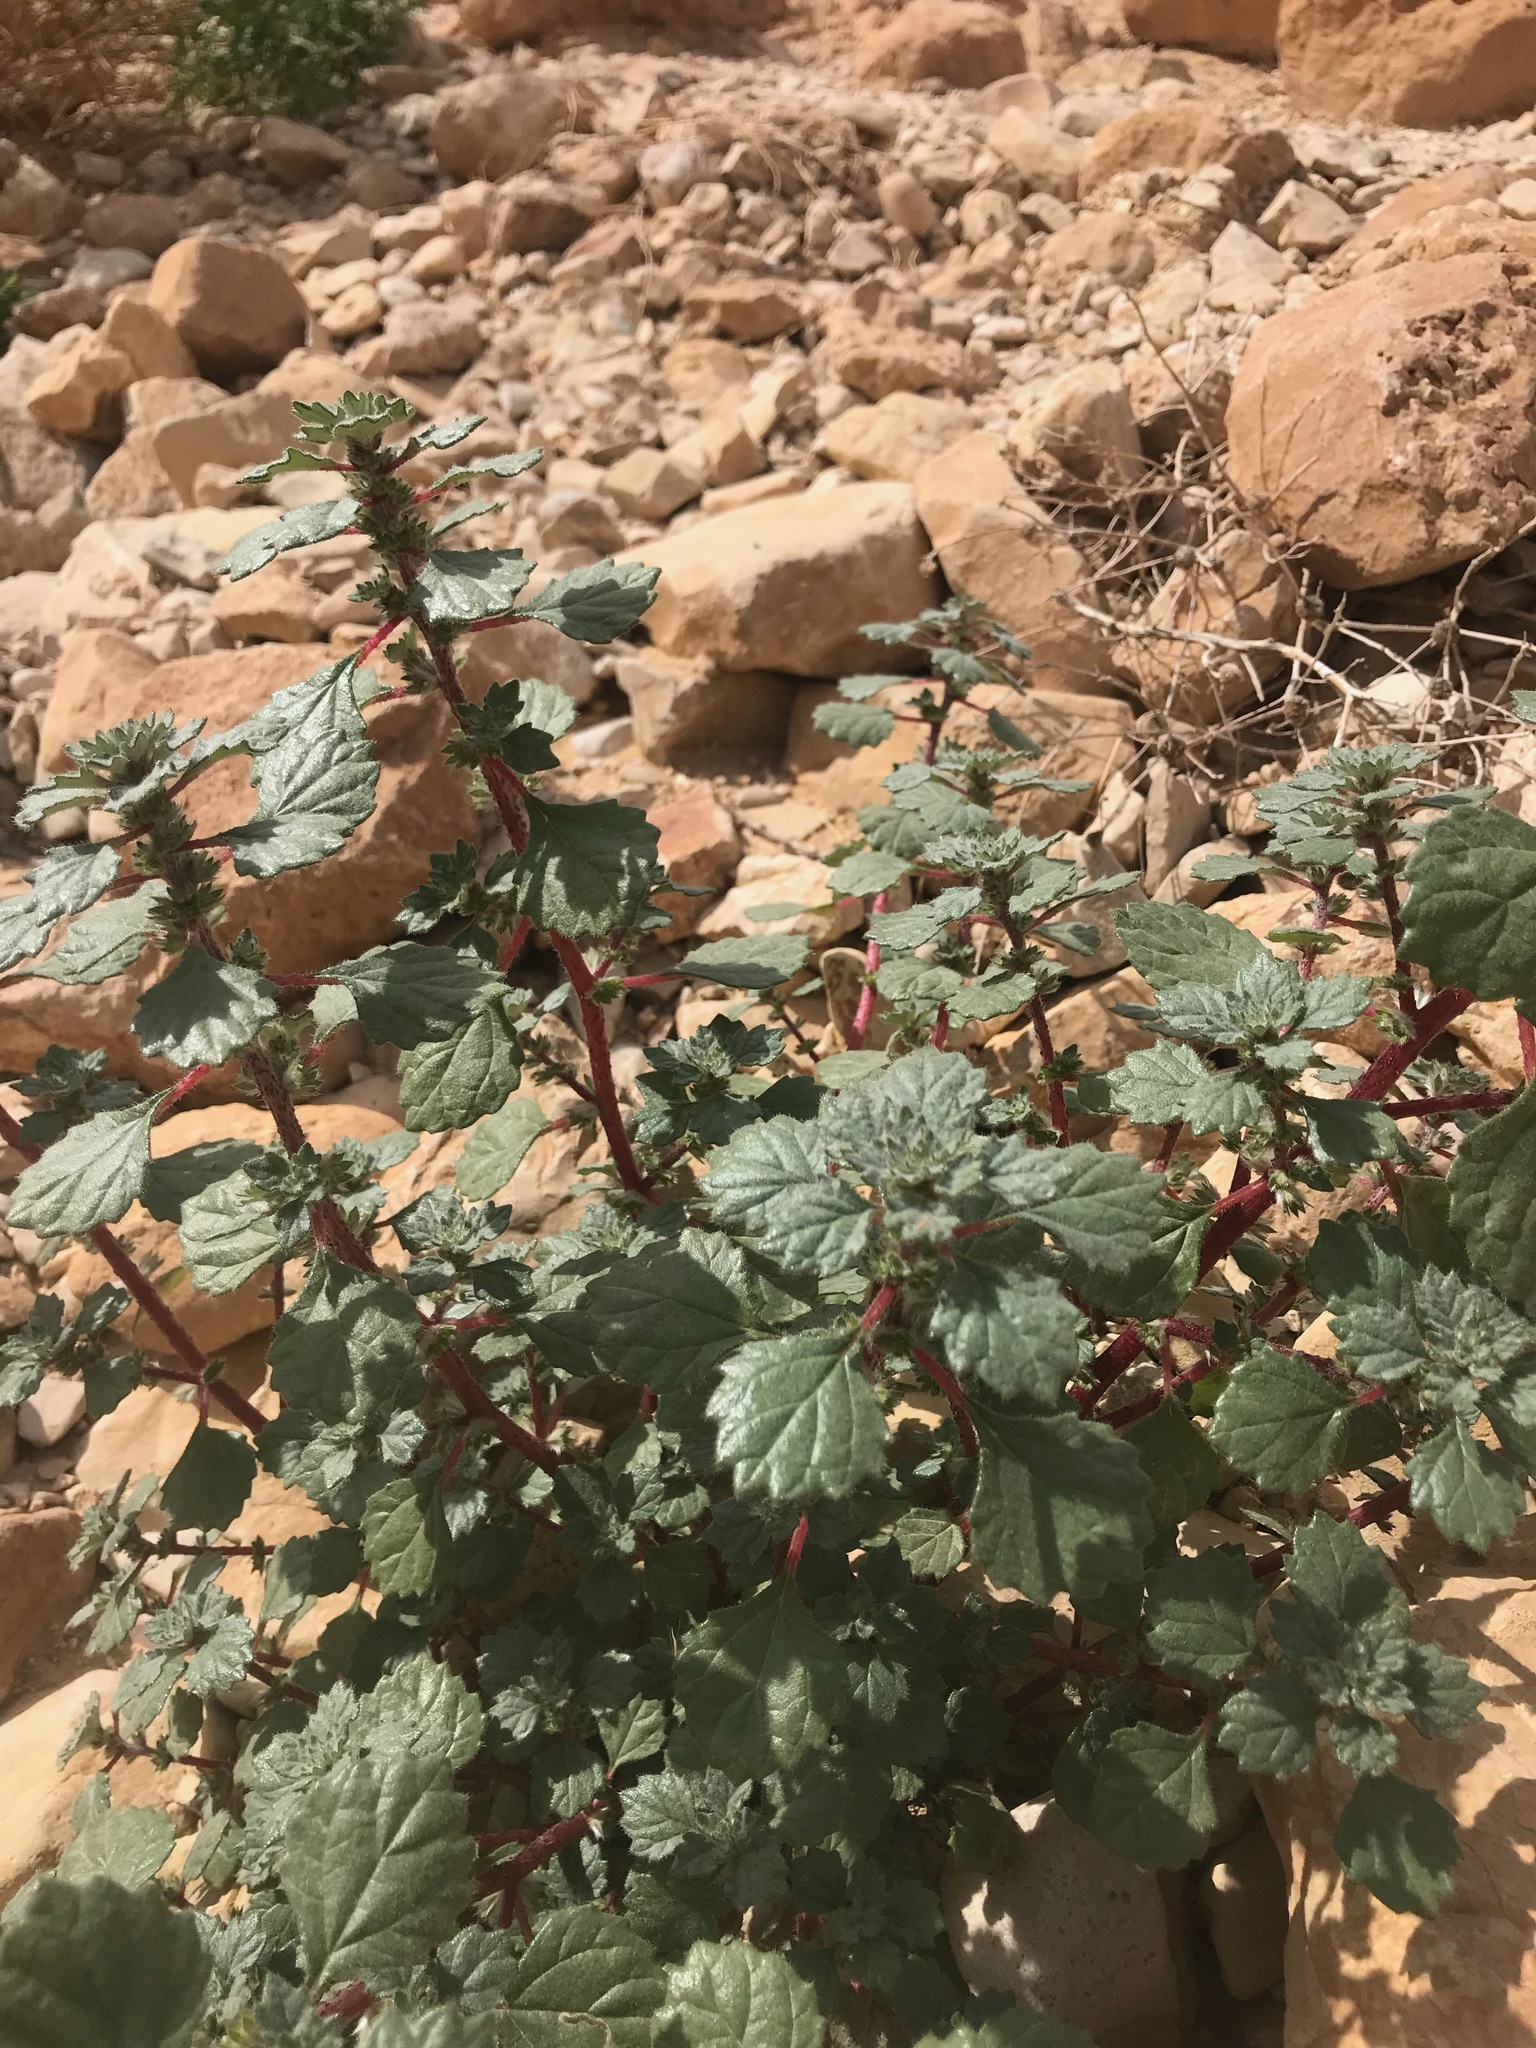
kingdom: Plantae
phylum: Tracheophyta
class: Magnoliopsida
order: Rosales
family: Urticaceae
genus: Forsskaolea
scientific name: Forsskaolea tenacissima
